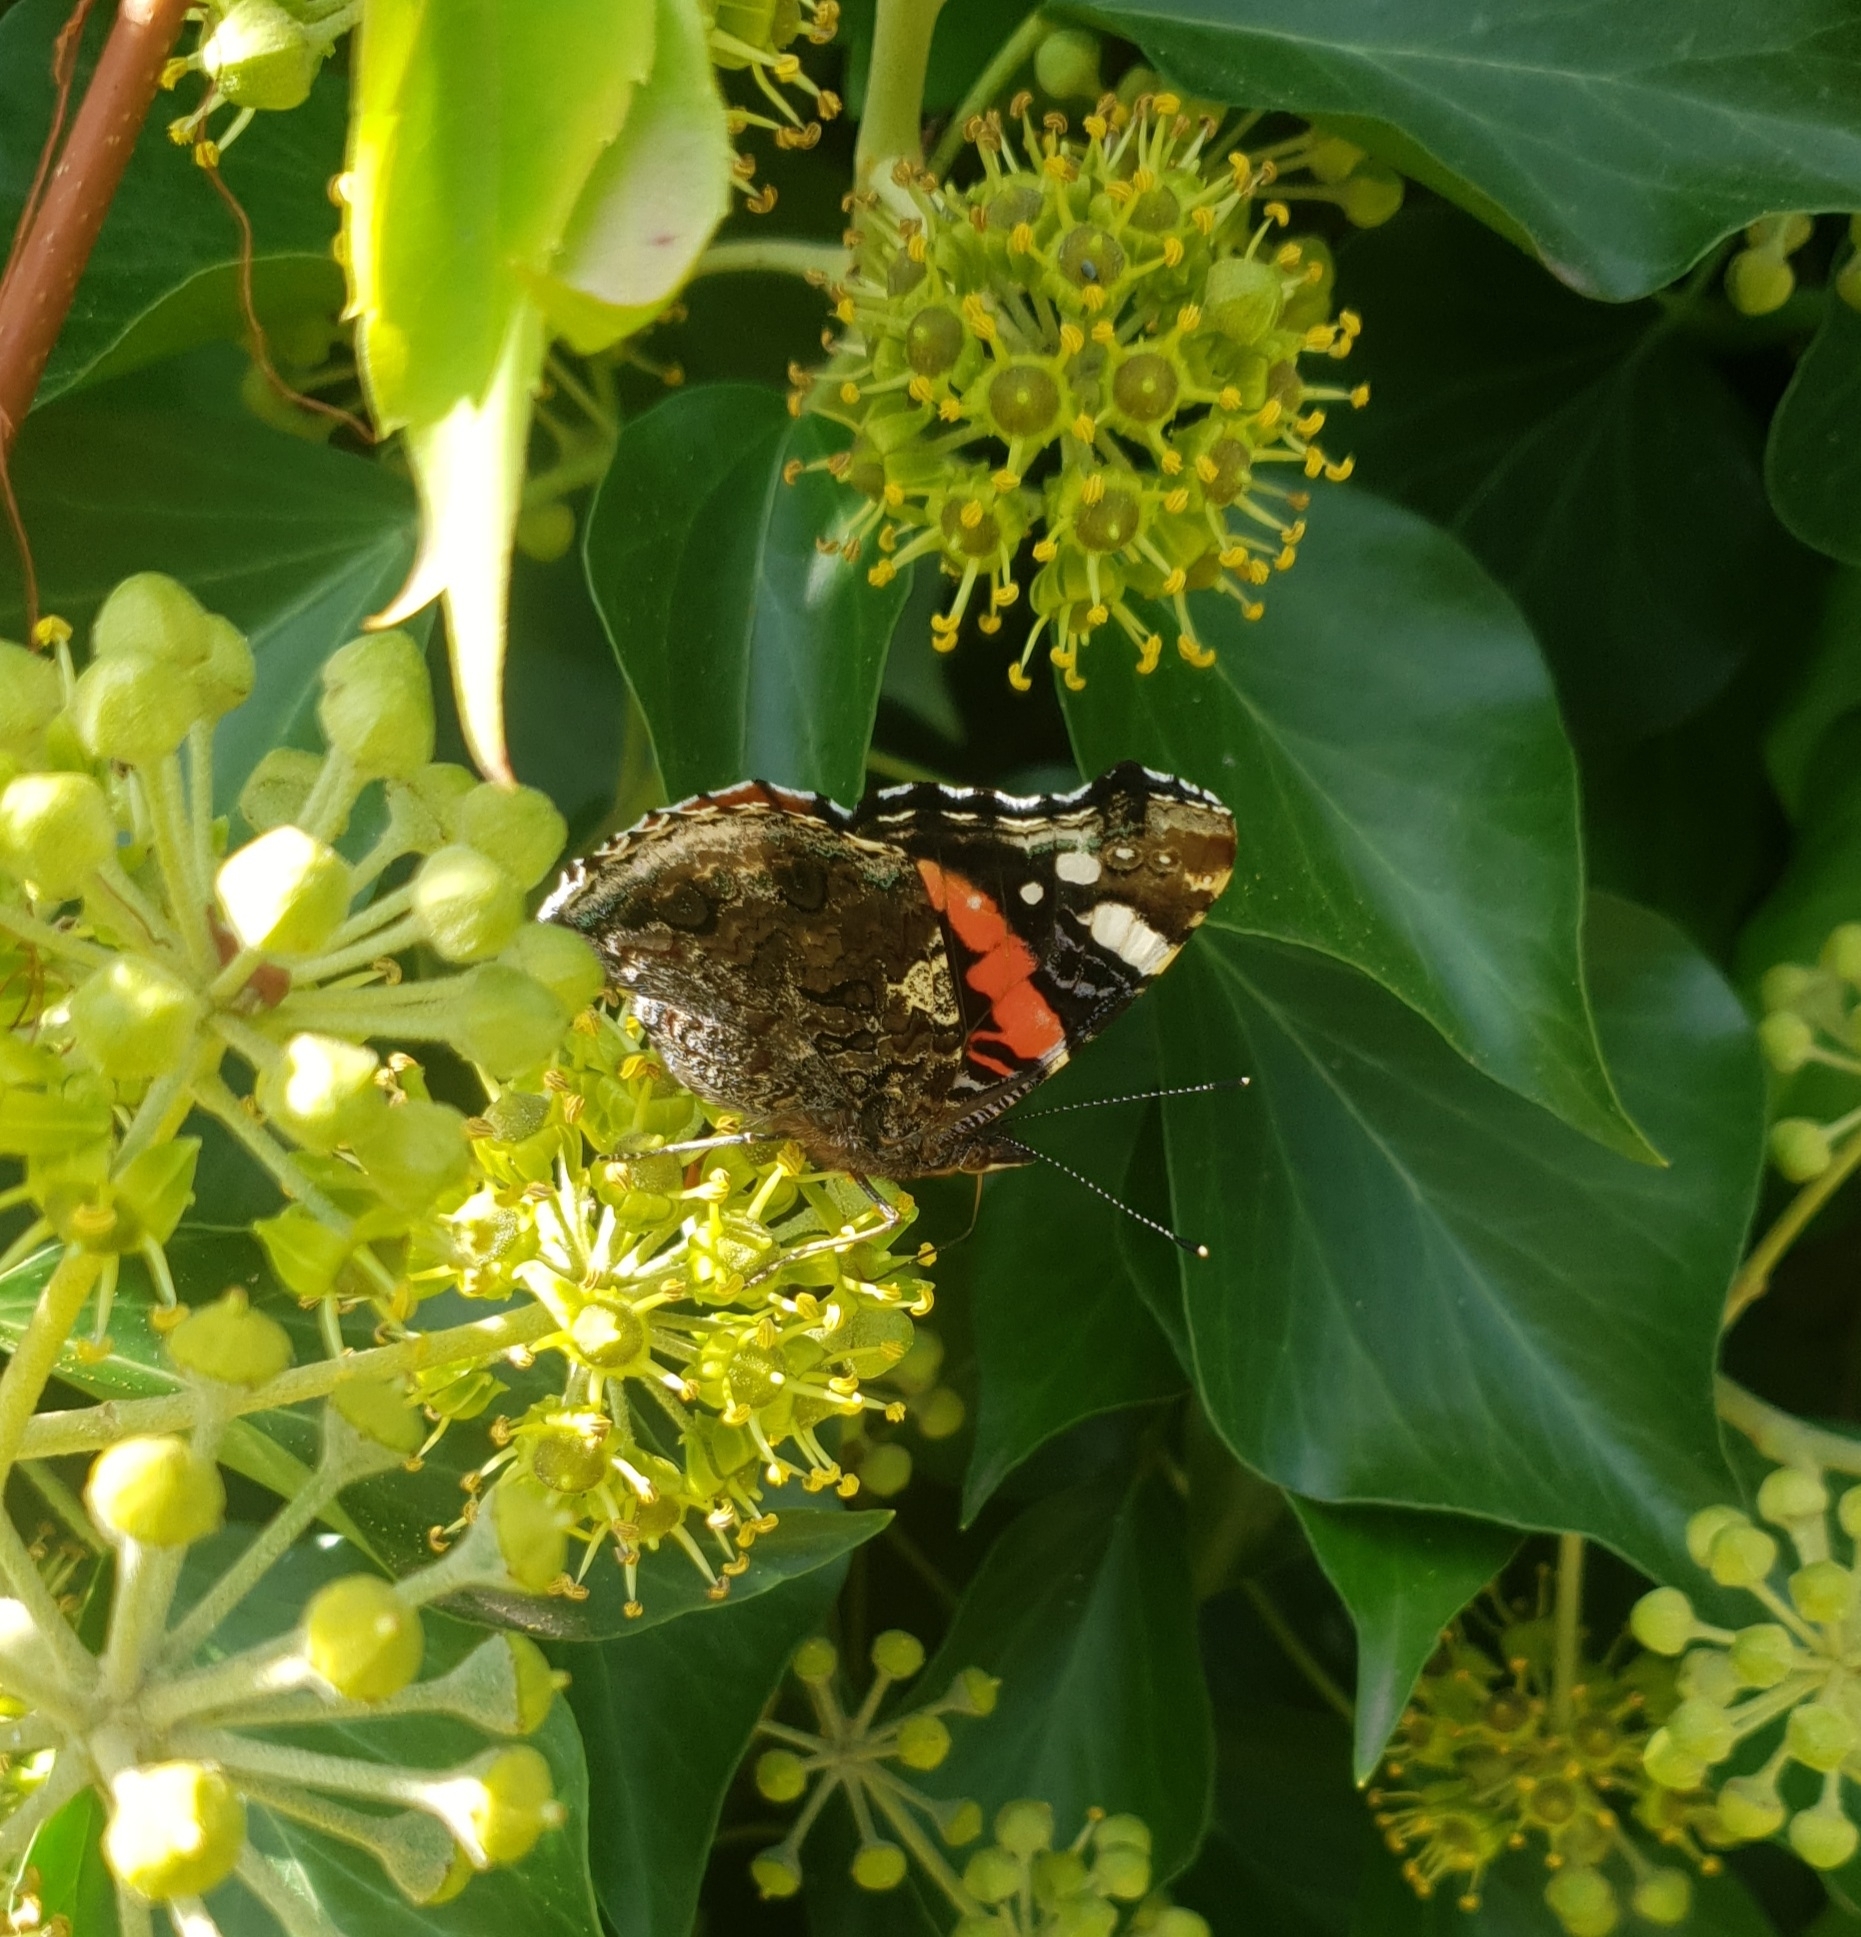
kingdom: Animalia
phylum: Arthropoda
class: Insecta
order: Lepidoptera
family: Nymphalidae
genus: Vanessa
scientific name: Vanessa atalanta
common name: Red admiral
